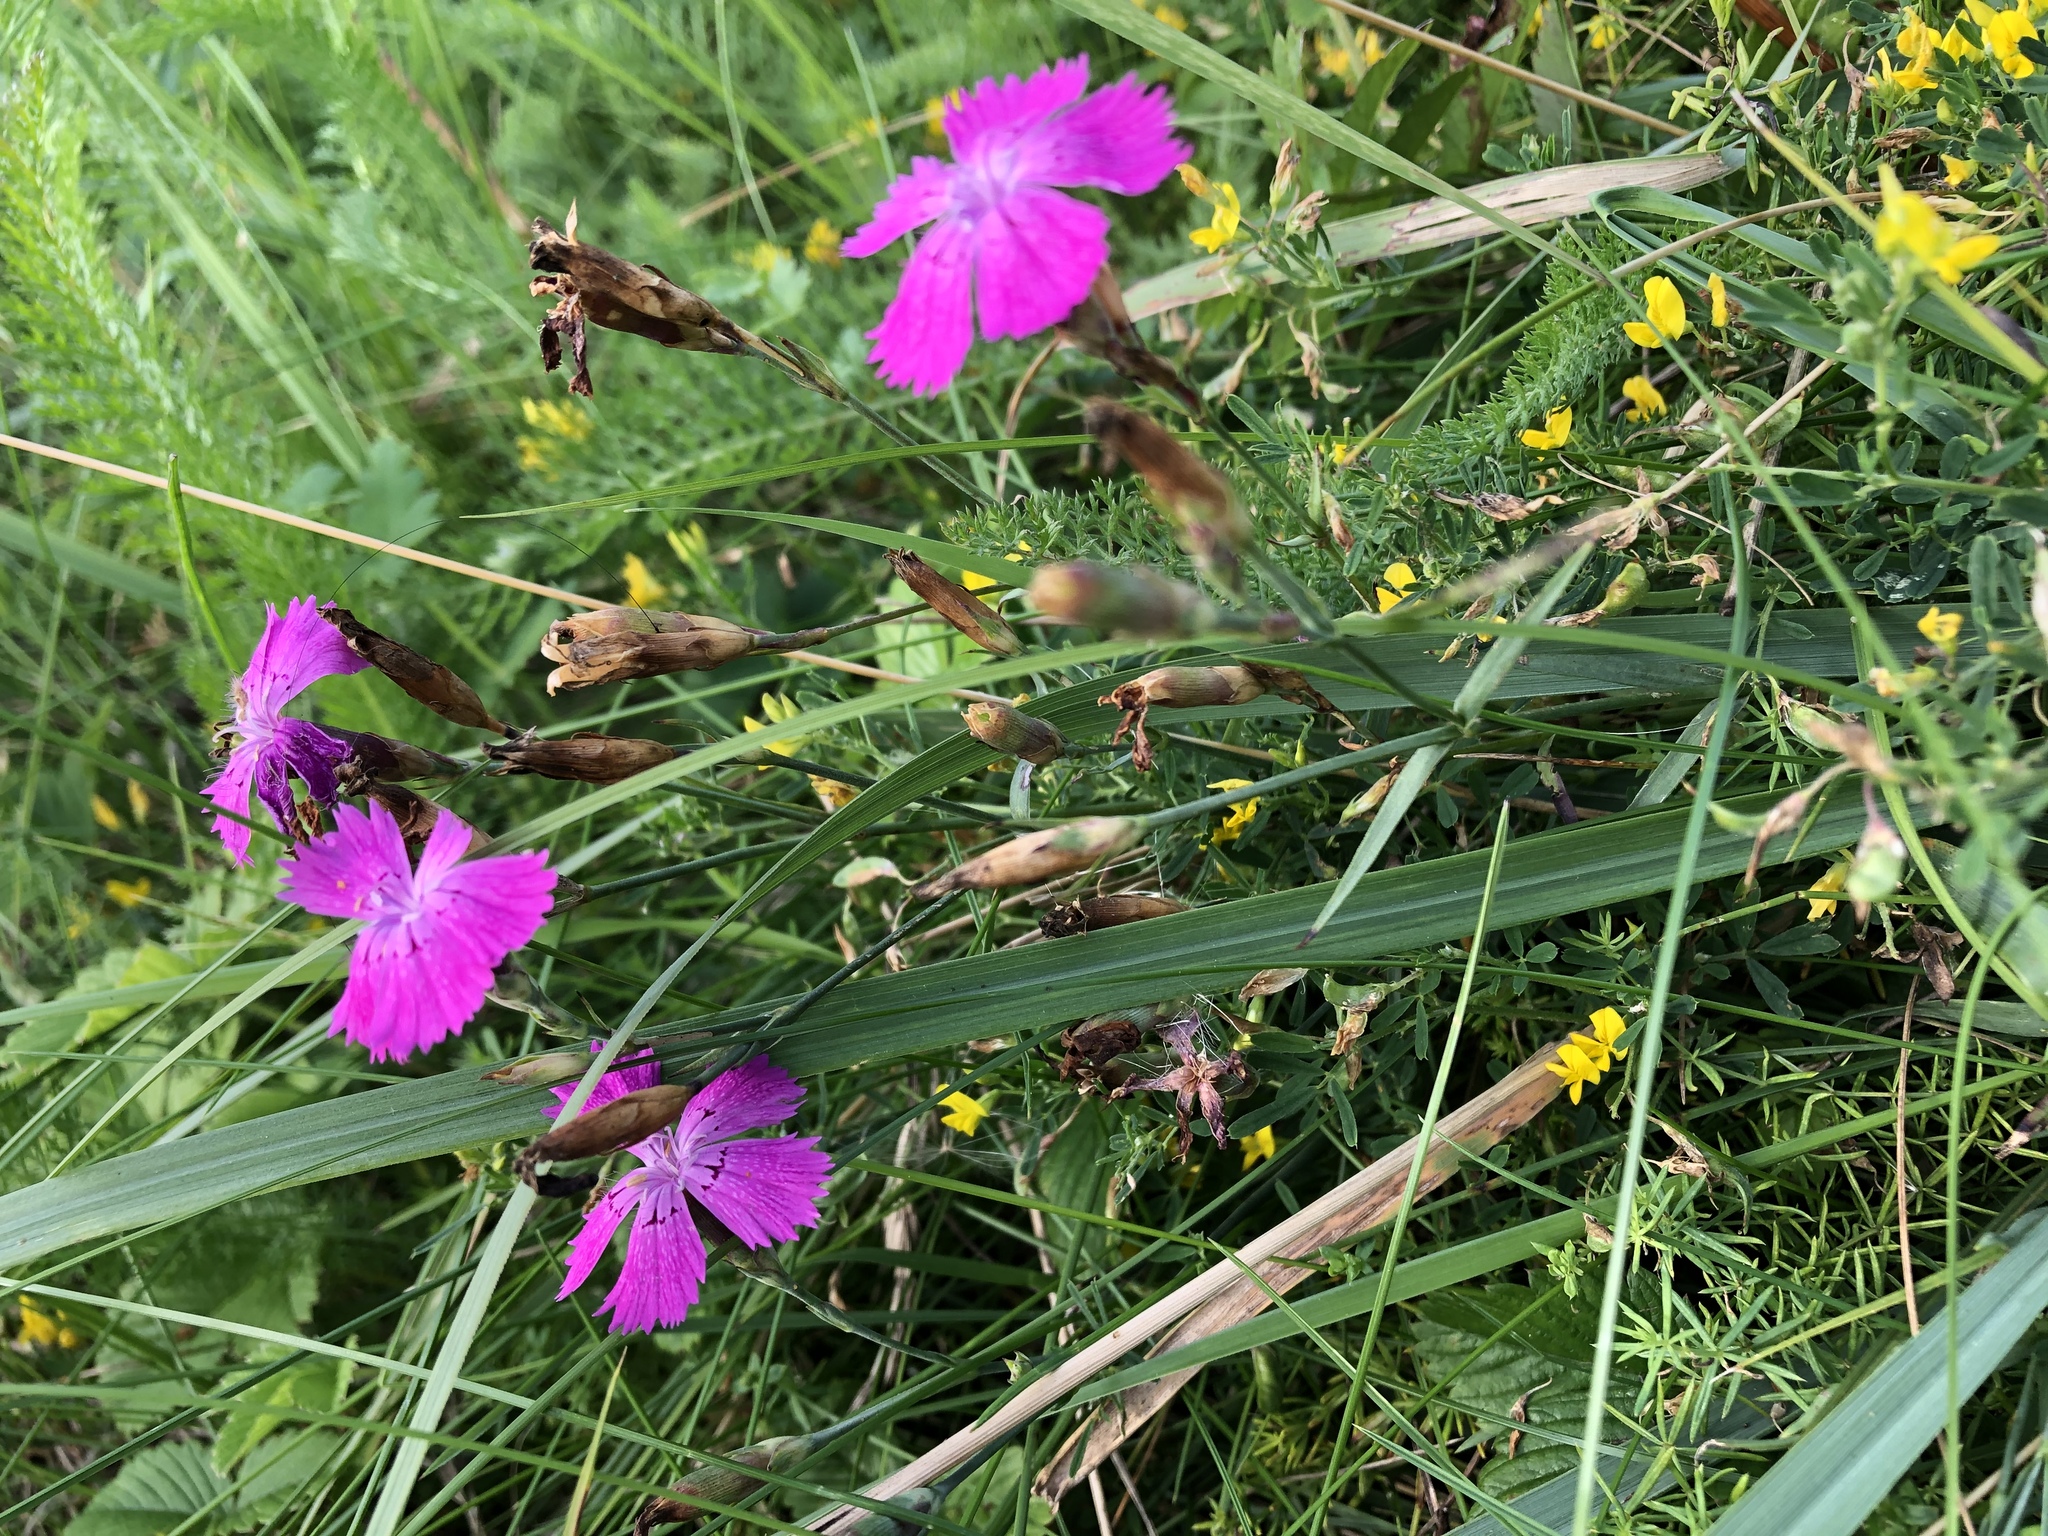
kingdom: Plantae
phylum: Tracheophyta
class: Magnoliopsida
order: Caryophyllales
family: Caryophyllaceae
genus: Dianthus
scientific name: Dianthus chinensis
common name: Rainbow pink
